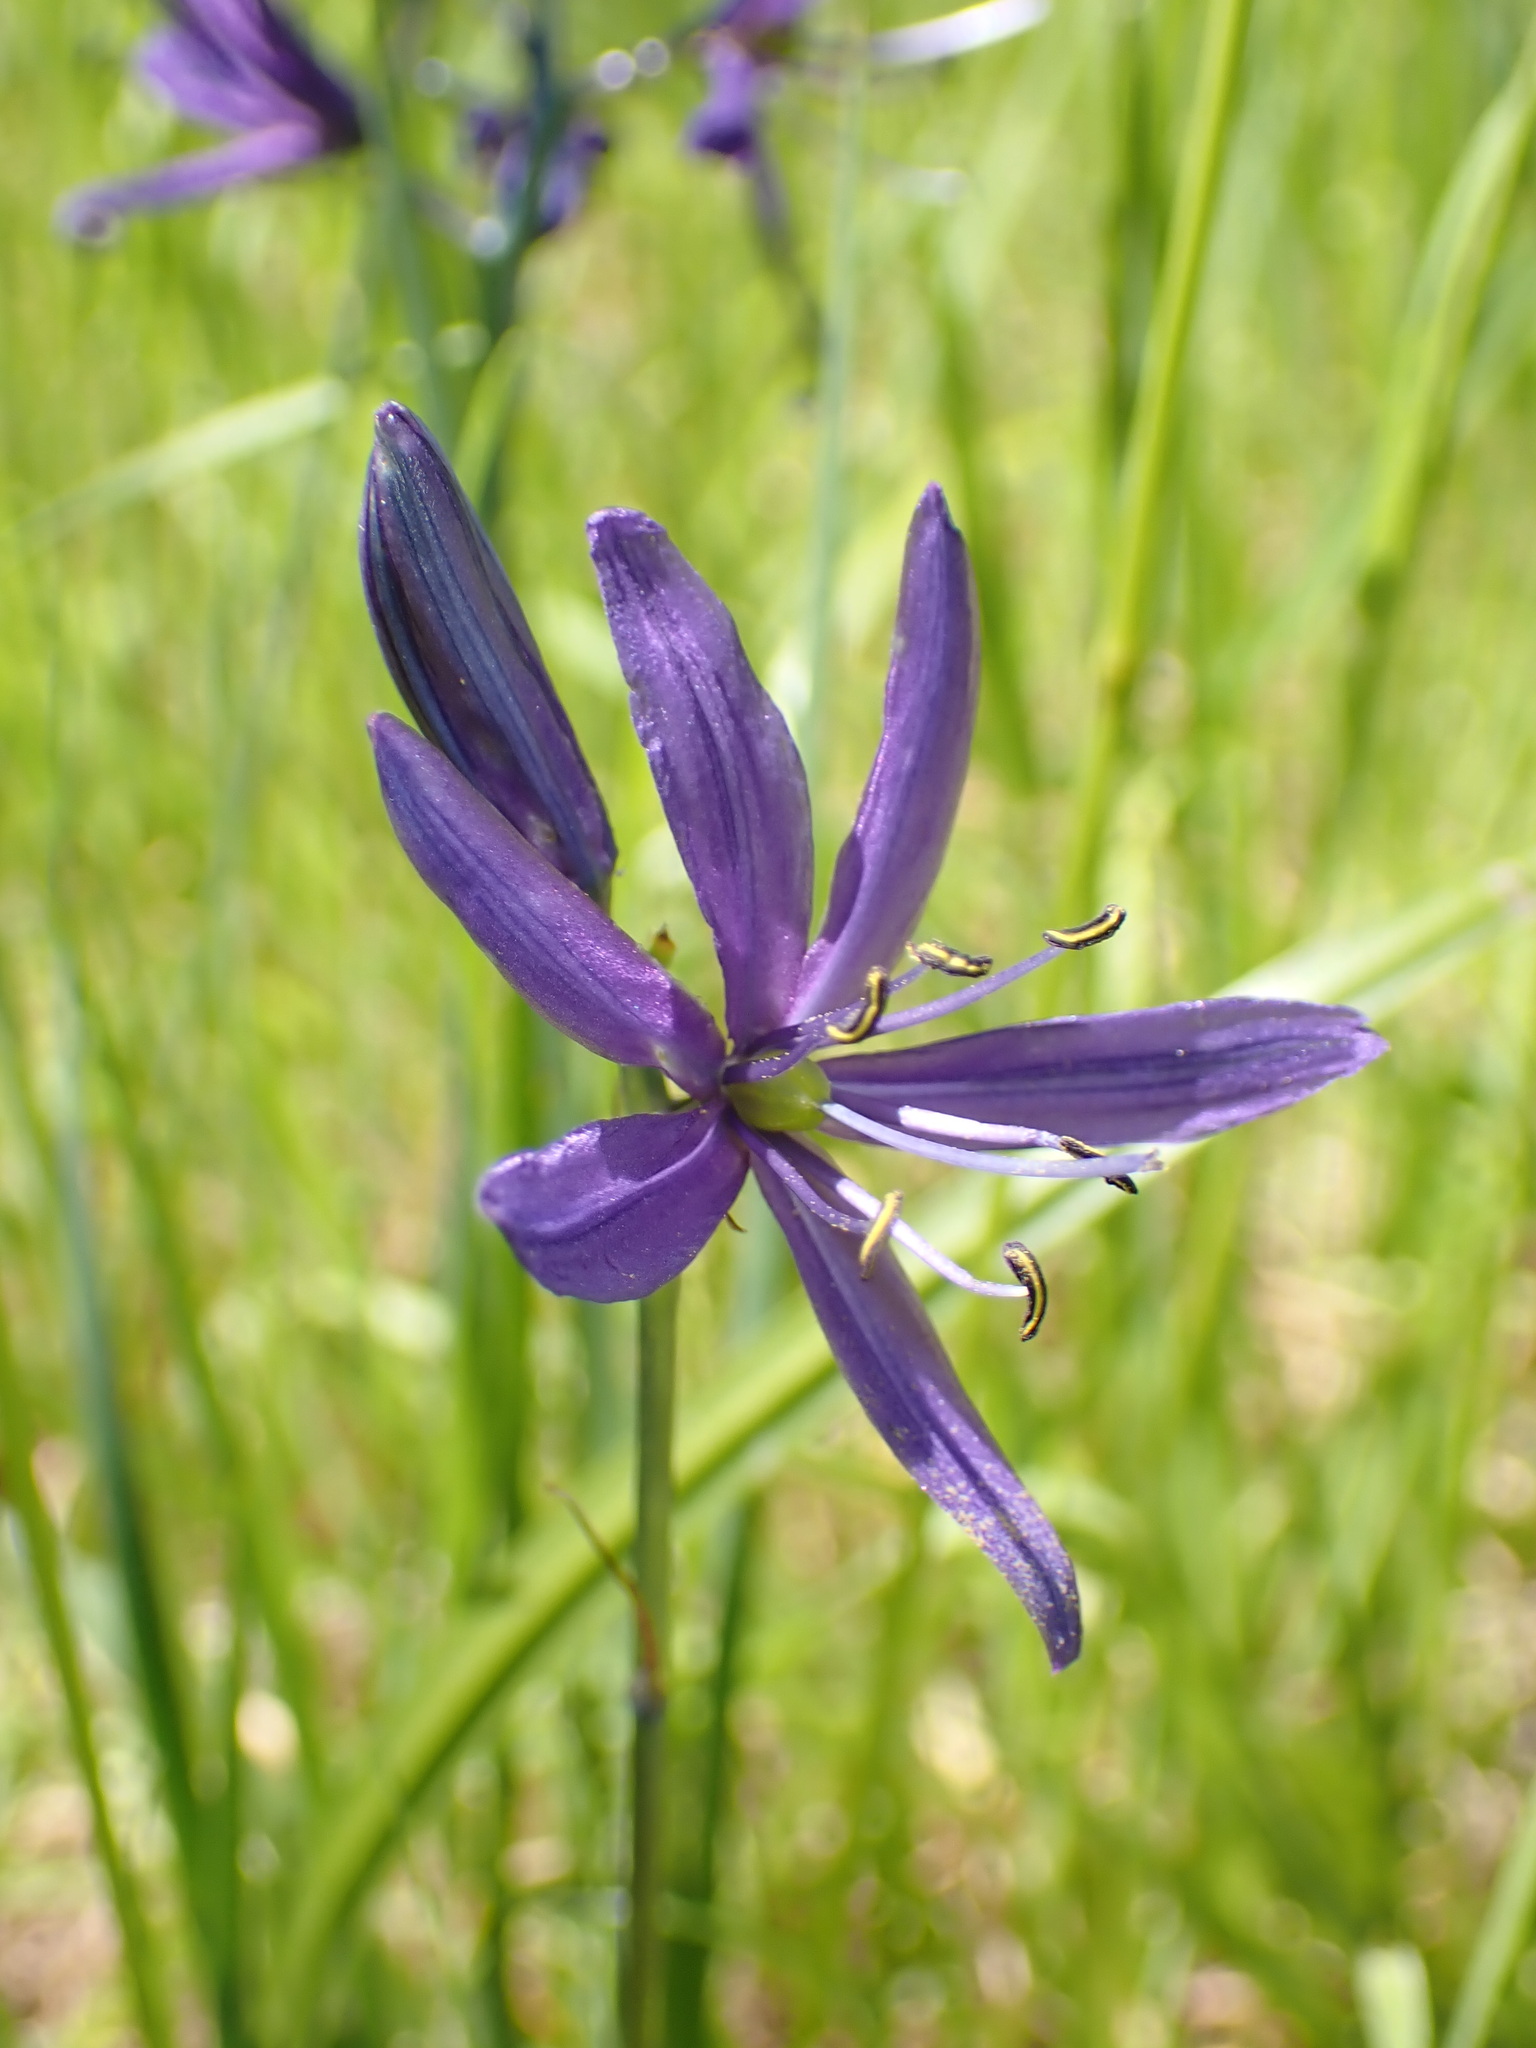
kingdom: Plantae
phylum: Tracheophyta
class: Liliopsida
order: Asparagales
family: Asparagaceae
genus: Camassia
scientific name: Camassia quamash
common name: Common camas
